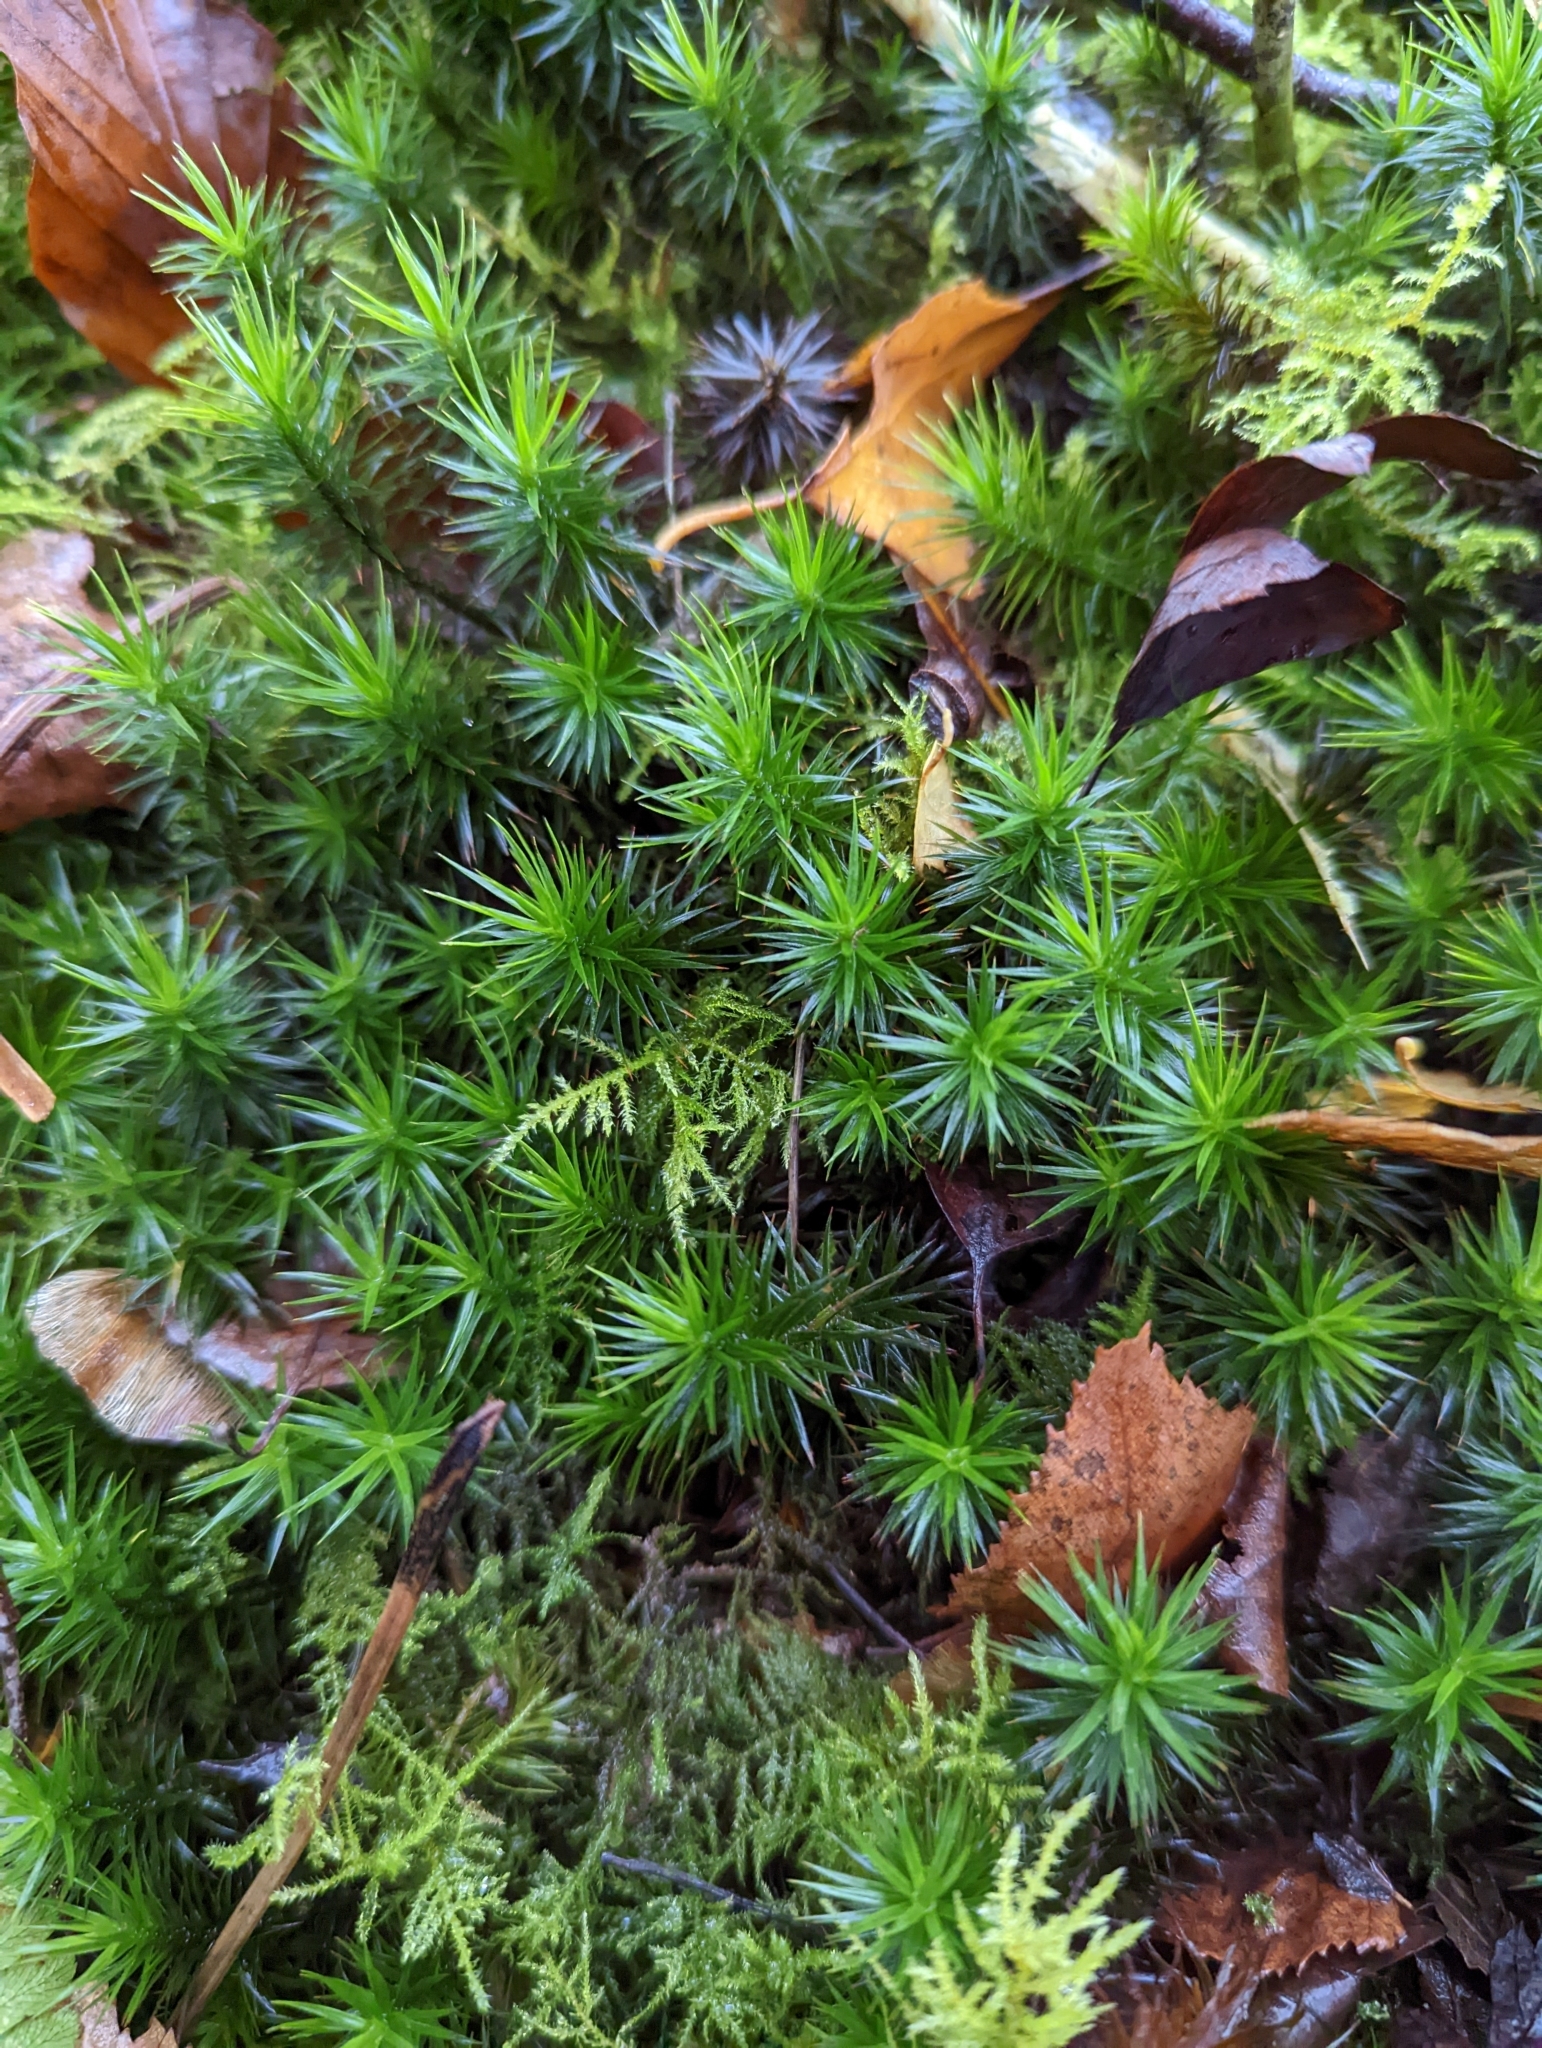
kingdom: Plantae
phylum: Bryophyta
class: Polytrichopsida
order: Polytrichales
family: Polytrichaceae
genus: Polytrichum
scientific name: Polytrichum formosum
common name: Bank haircap moss
